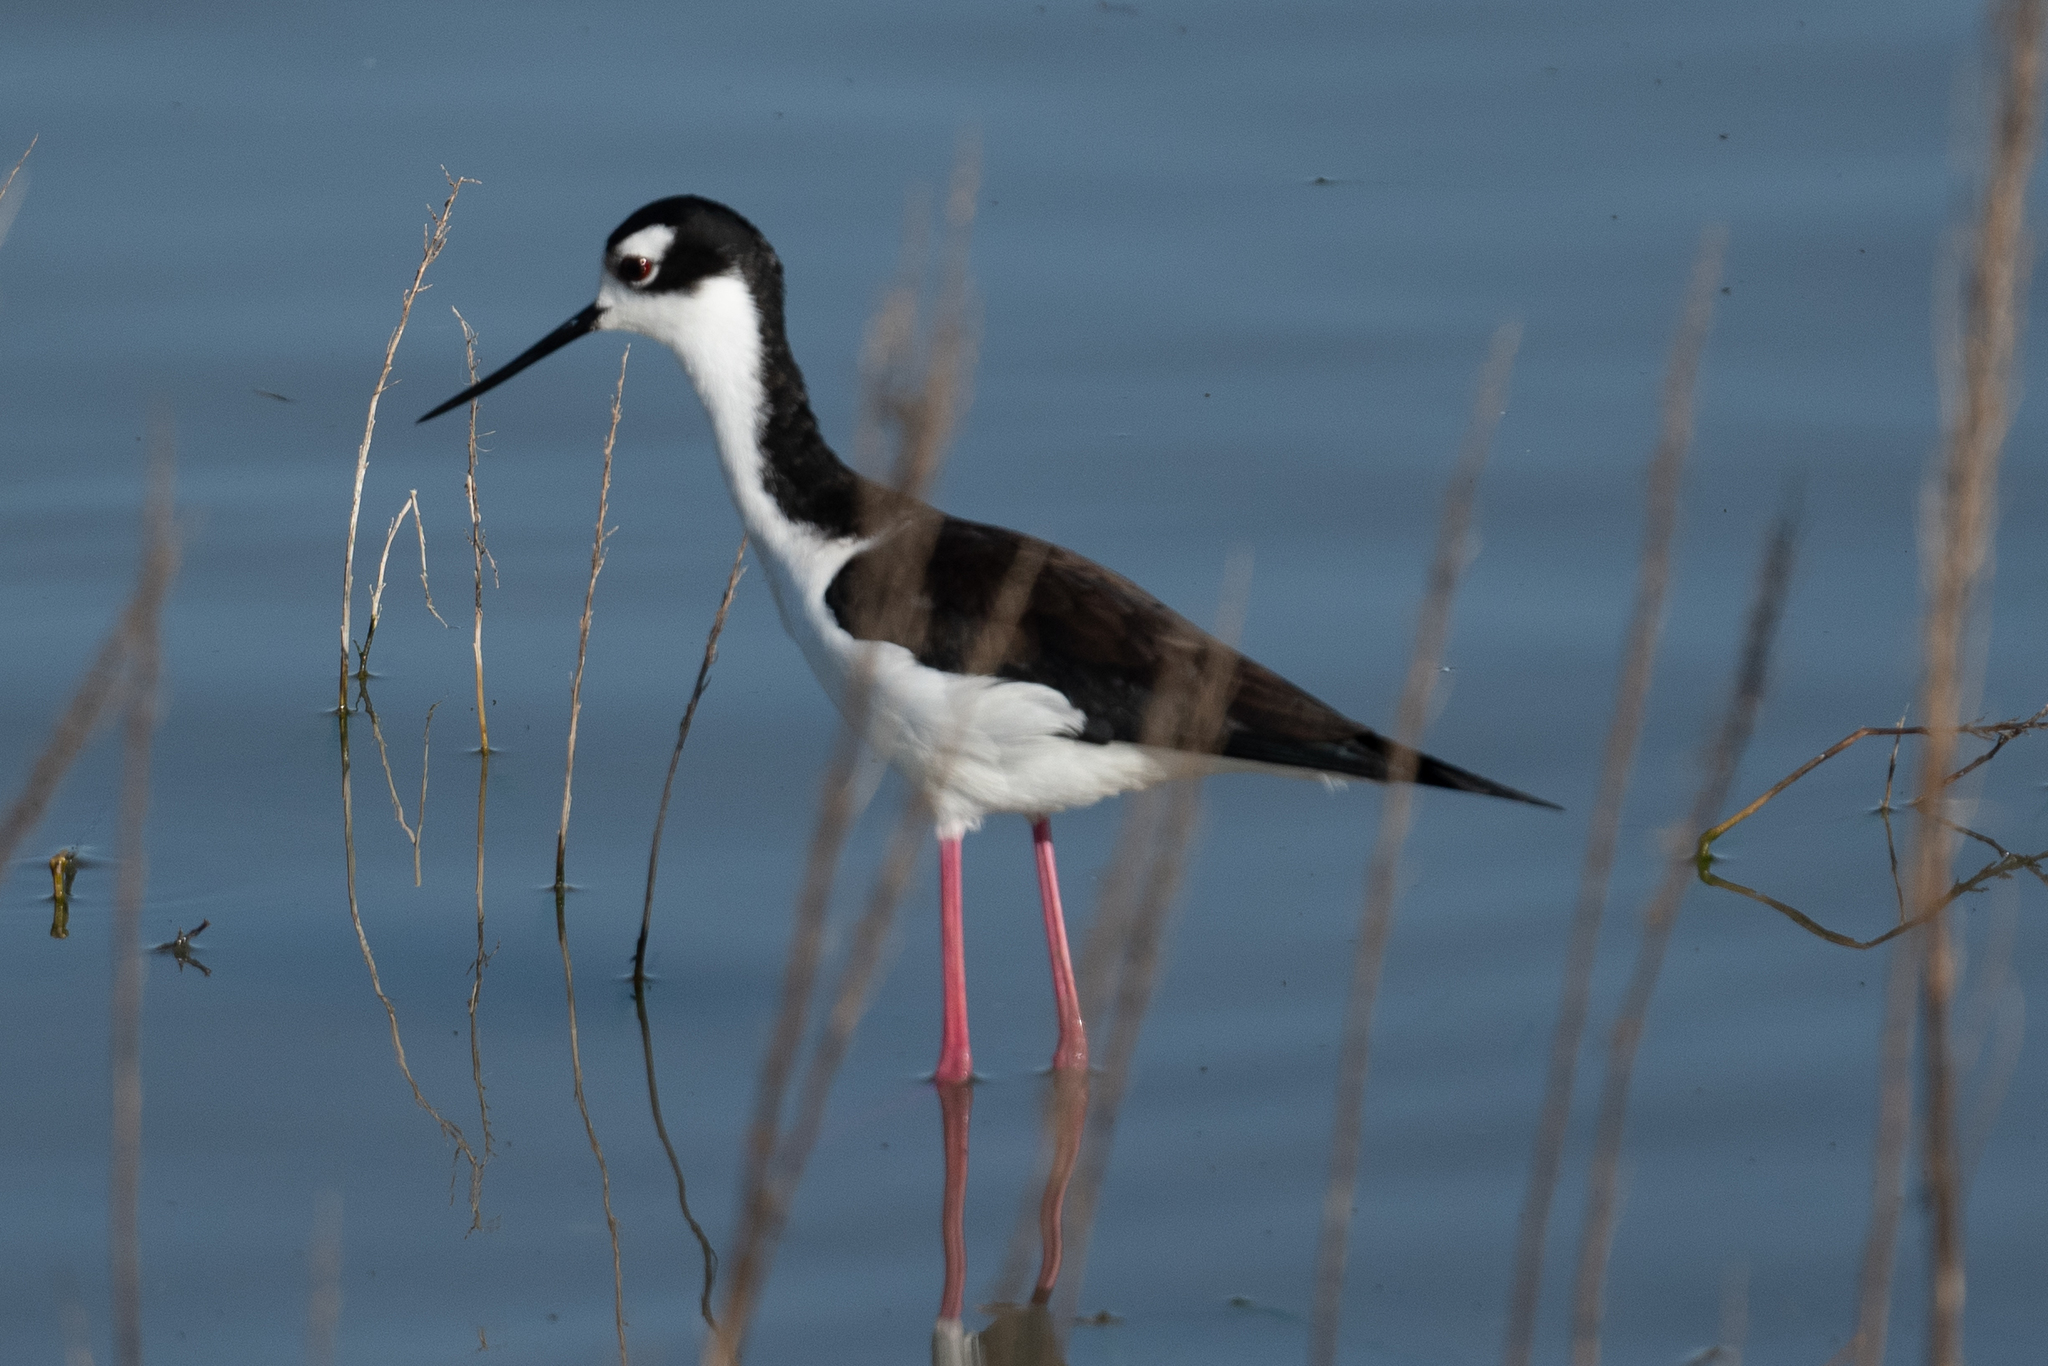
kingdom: Animalia
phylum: Chordata
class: Aves
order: Charadriiformes
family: Recurvirostridae
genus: Himantopus
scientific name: Himantopus mexicanus
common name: Black-necked stilt
